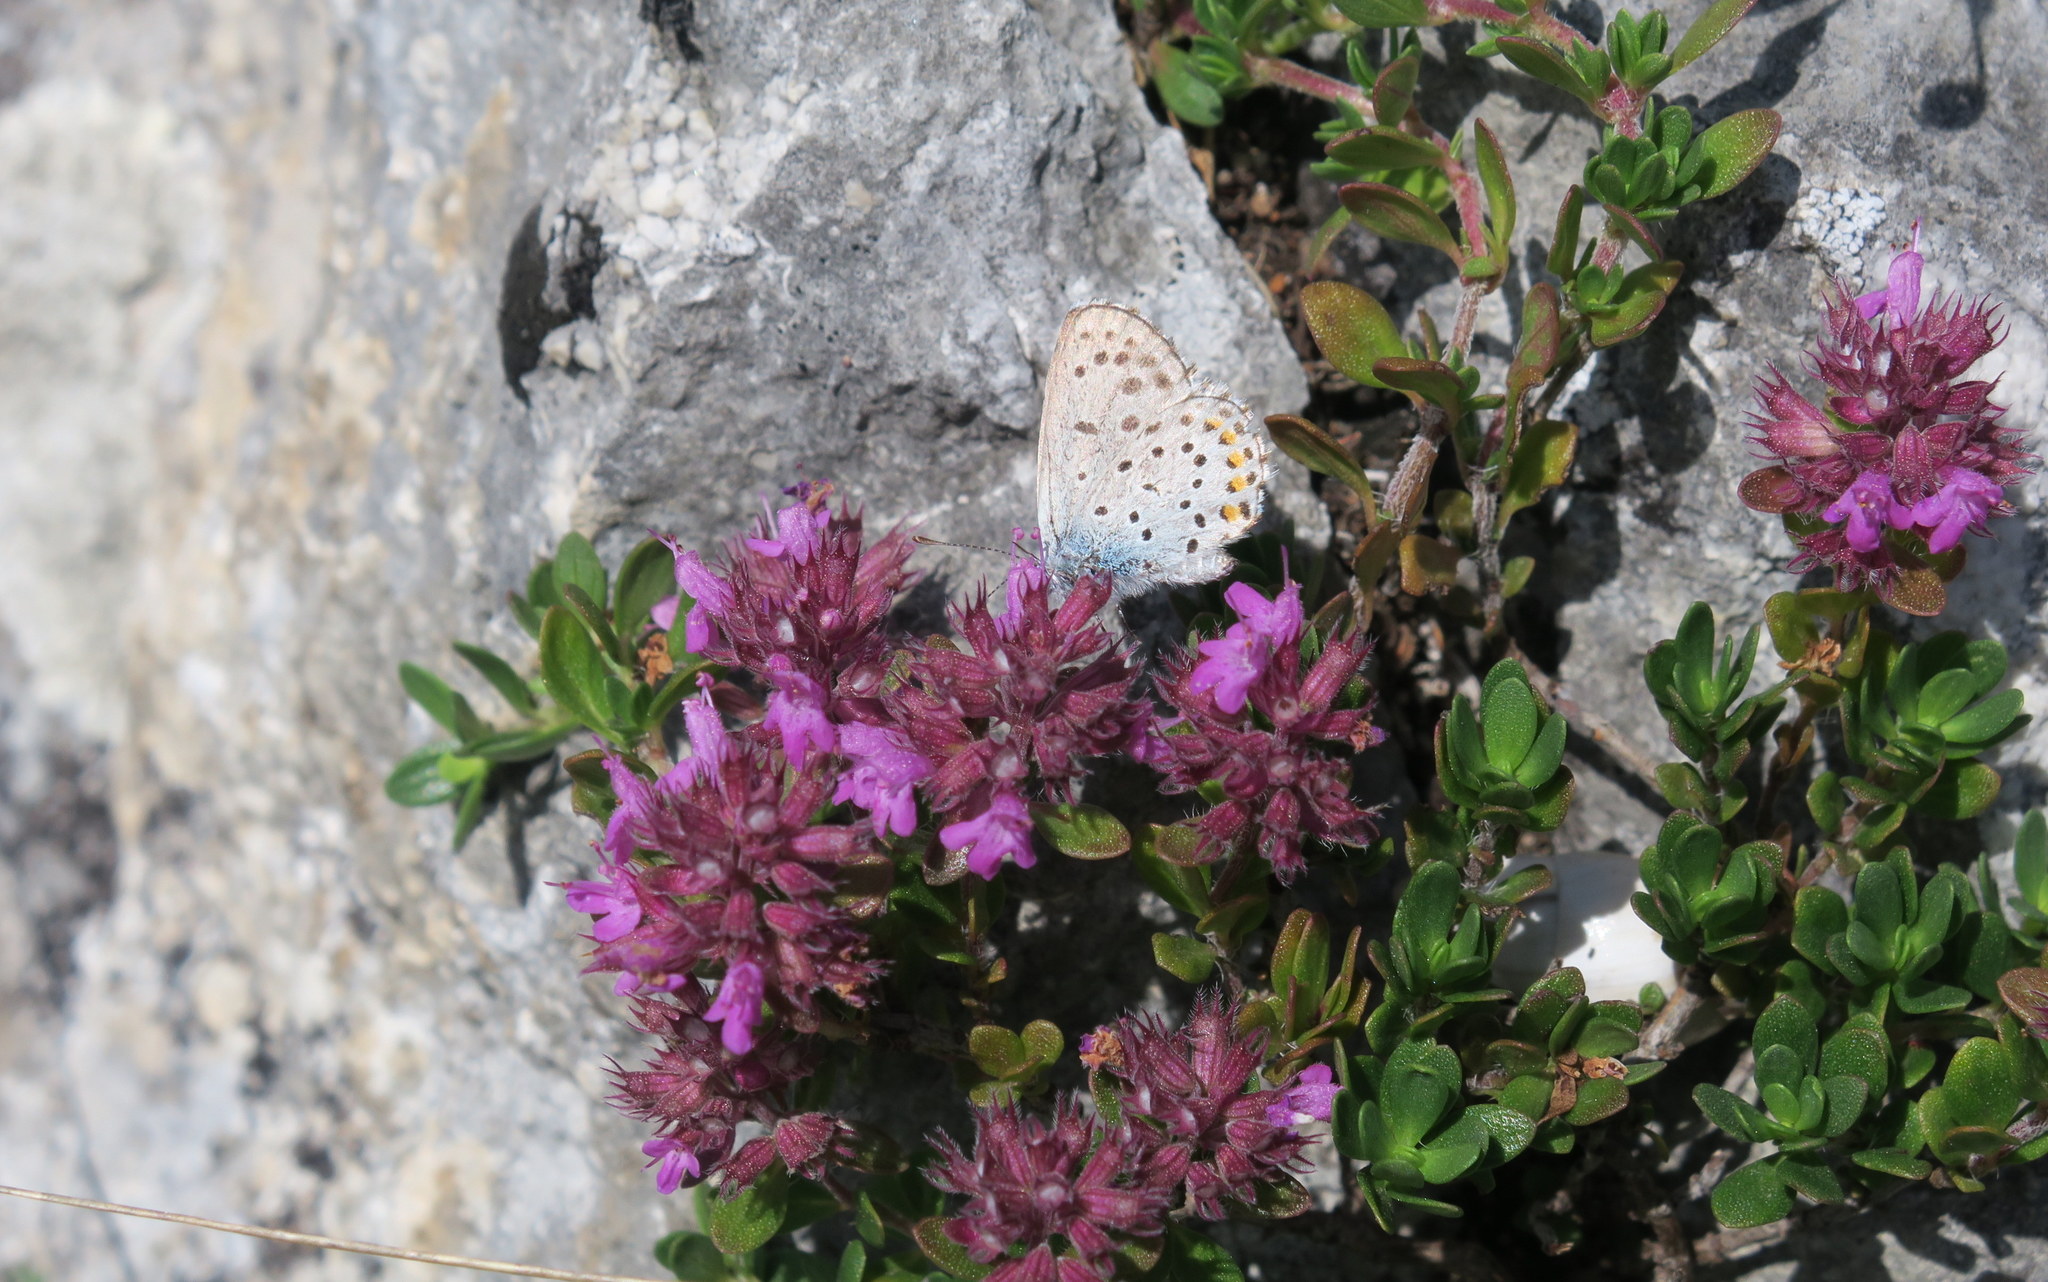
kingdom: Animalia
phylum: Arthropoda
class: Insecta
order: Lepidoptera
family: Lycaenidae
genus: Pseudophilotes
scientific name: Pseudophilotes baton
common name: Baton blue
